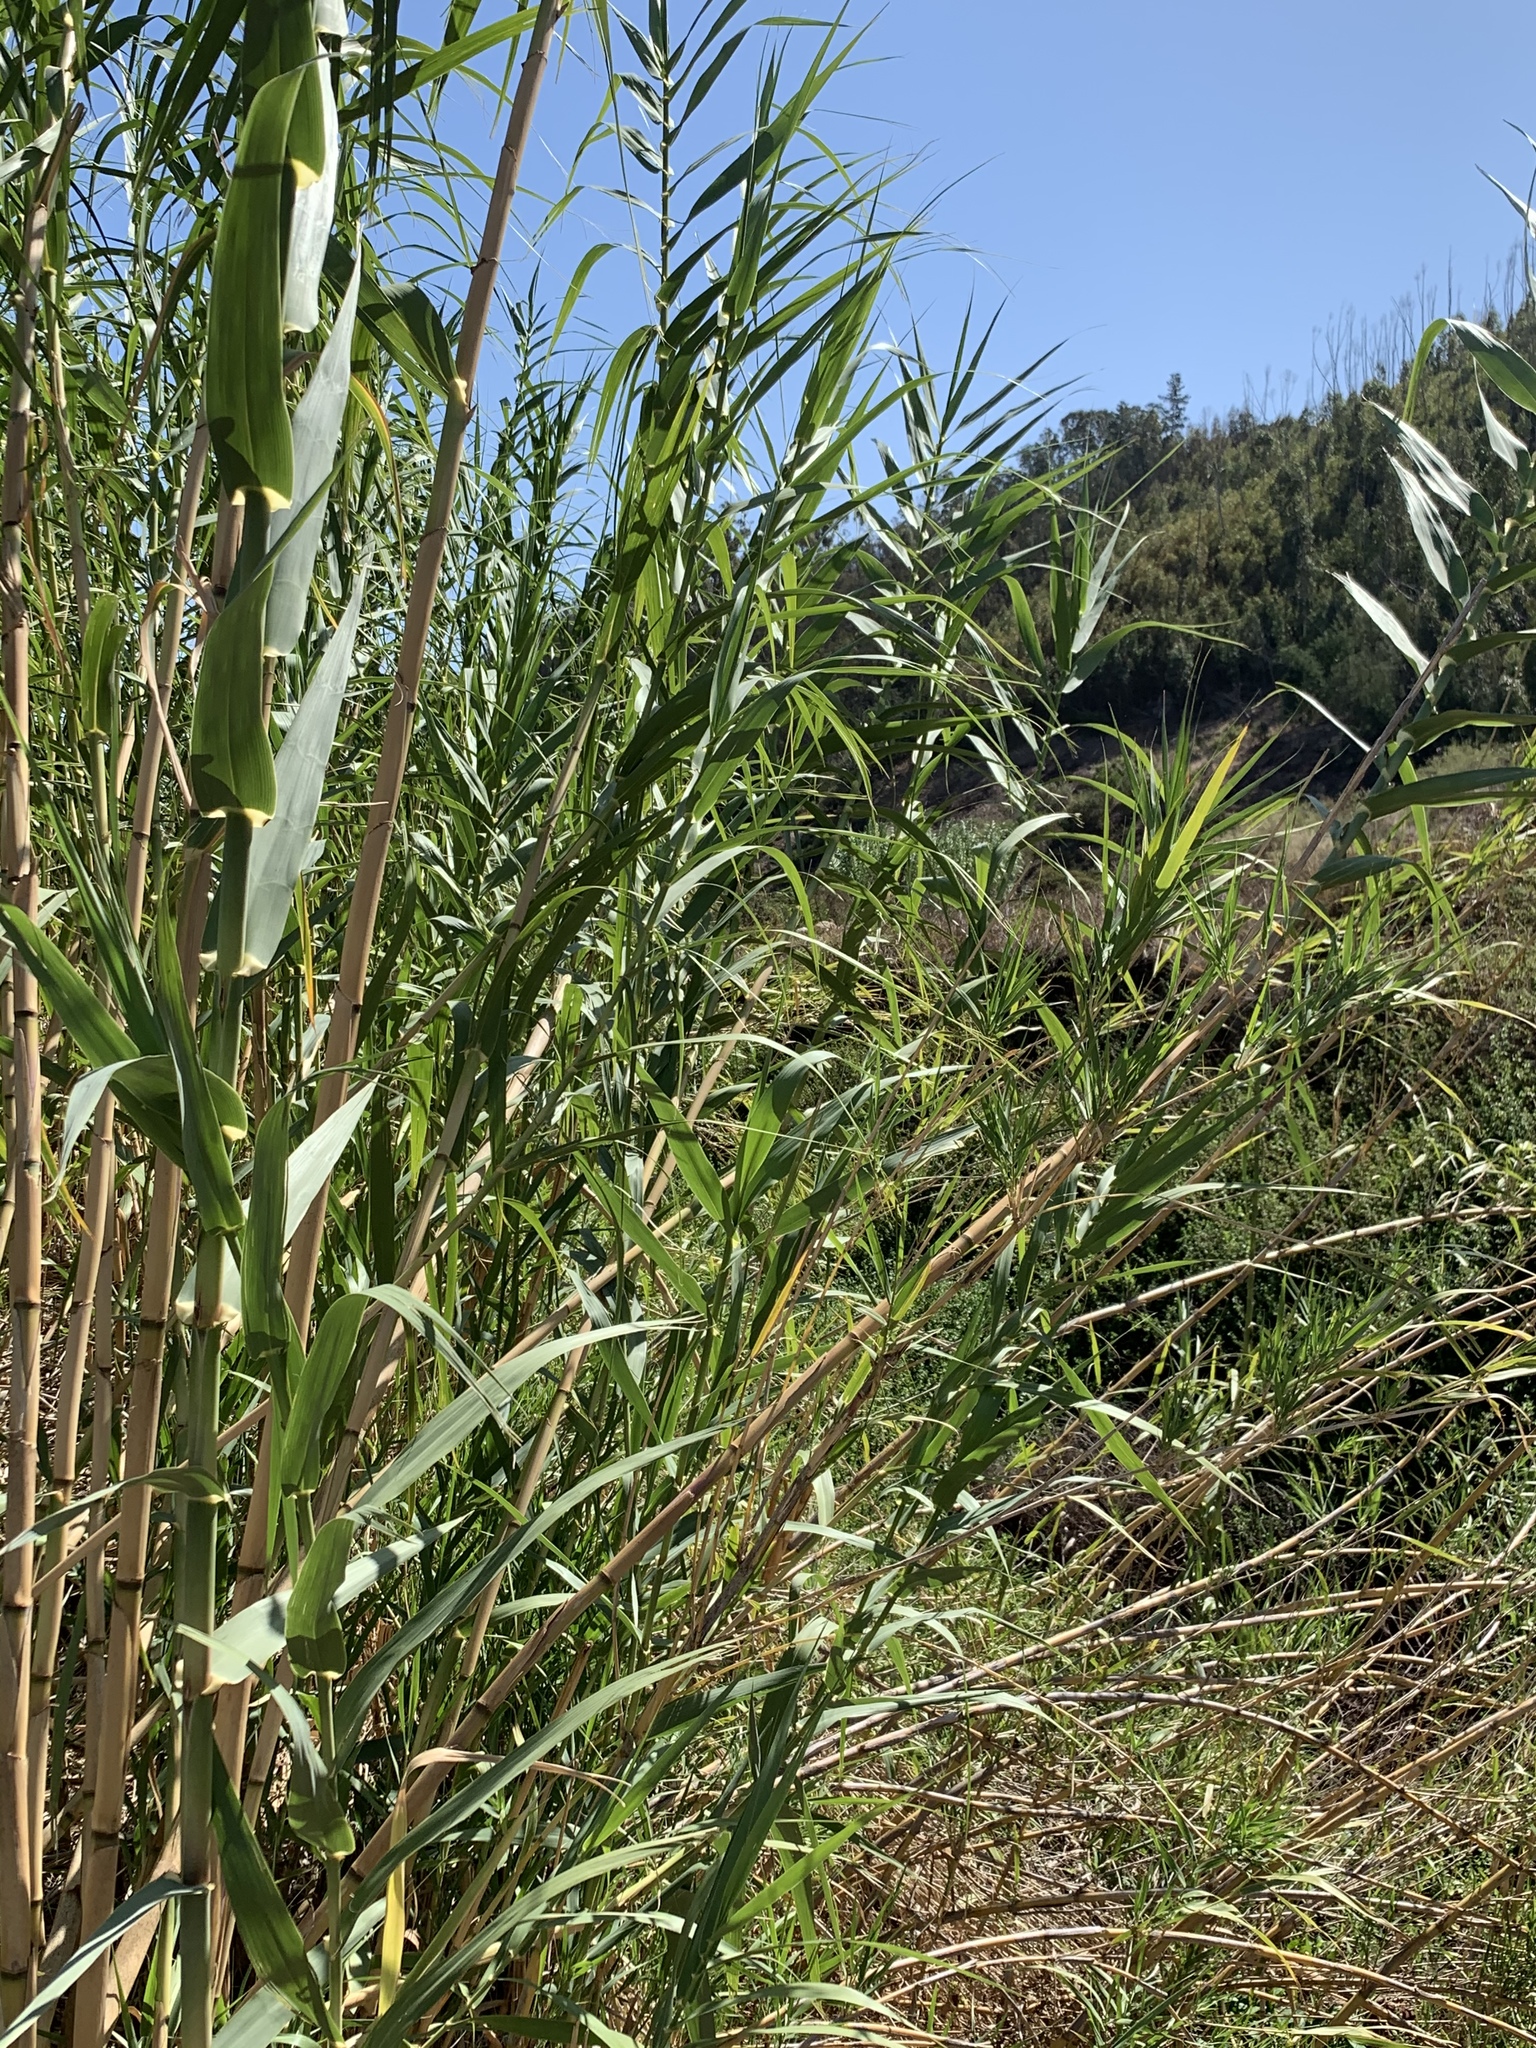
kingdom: Plantae
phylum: Tracheophyta
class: Liliopsida
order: Poales
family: Poaceae
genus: Arundo
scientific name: Arundo donax
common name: Giant reed
